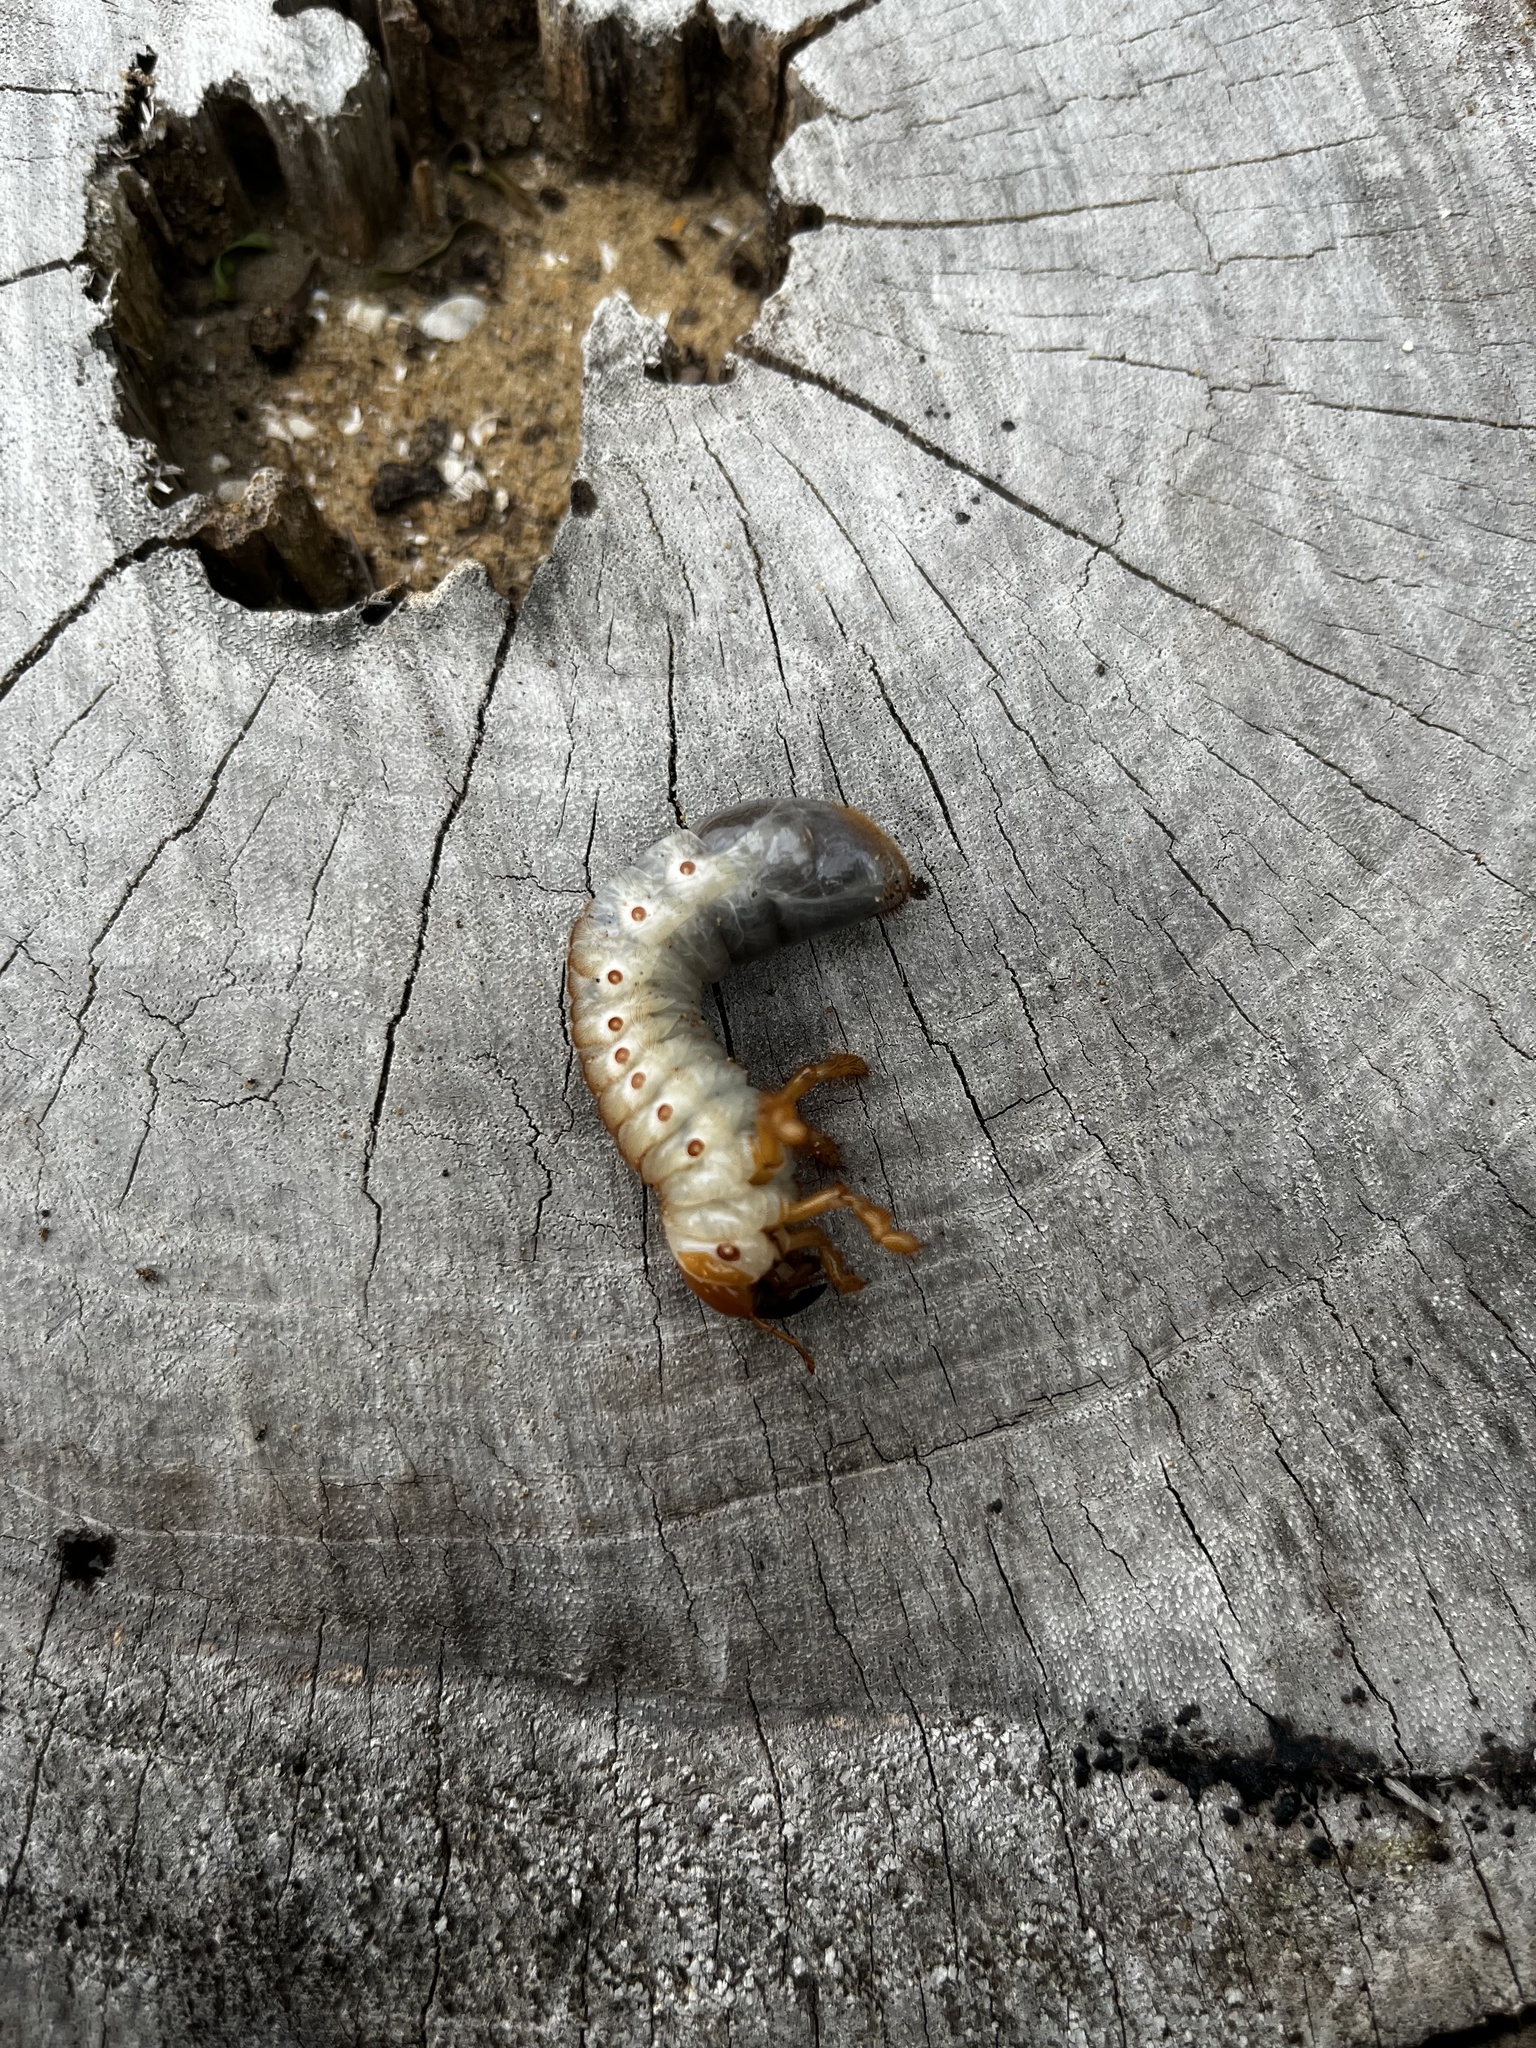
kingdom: Animalia
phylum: Arthropoda
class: Insecta
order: Coleoptera
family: Scarabaeidae
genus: Oryctes
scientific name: Oryctes rhinoceros
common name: Coconut rhinoceros beetle
